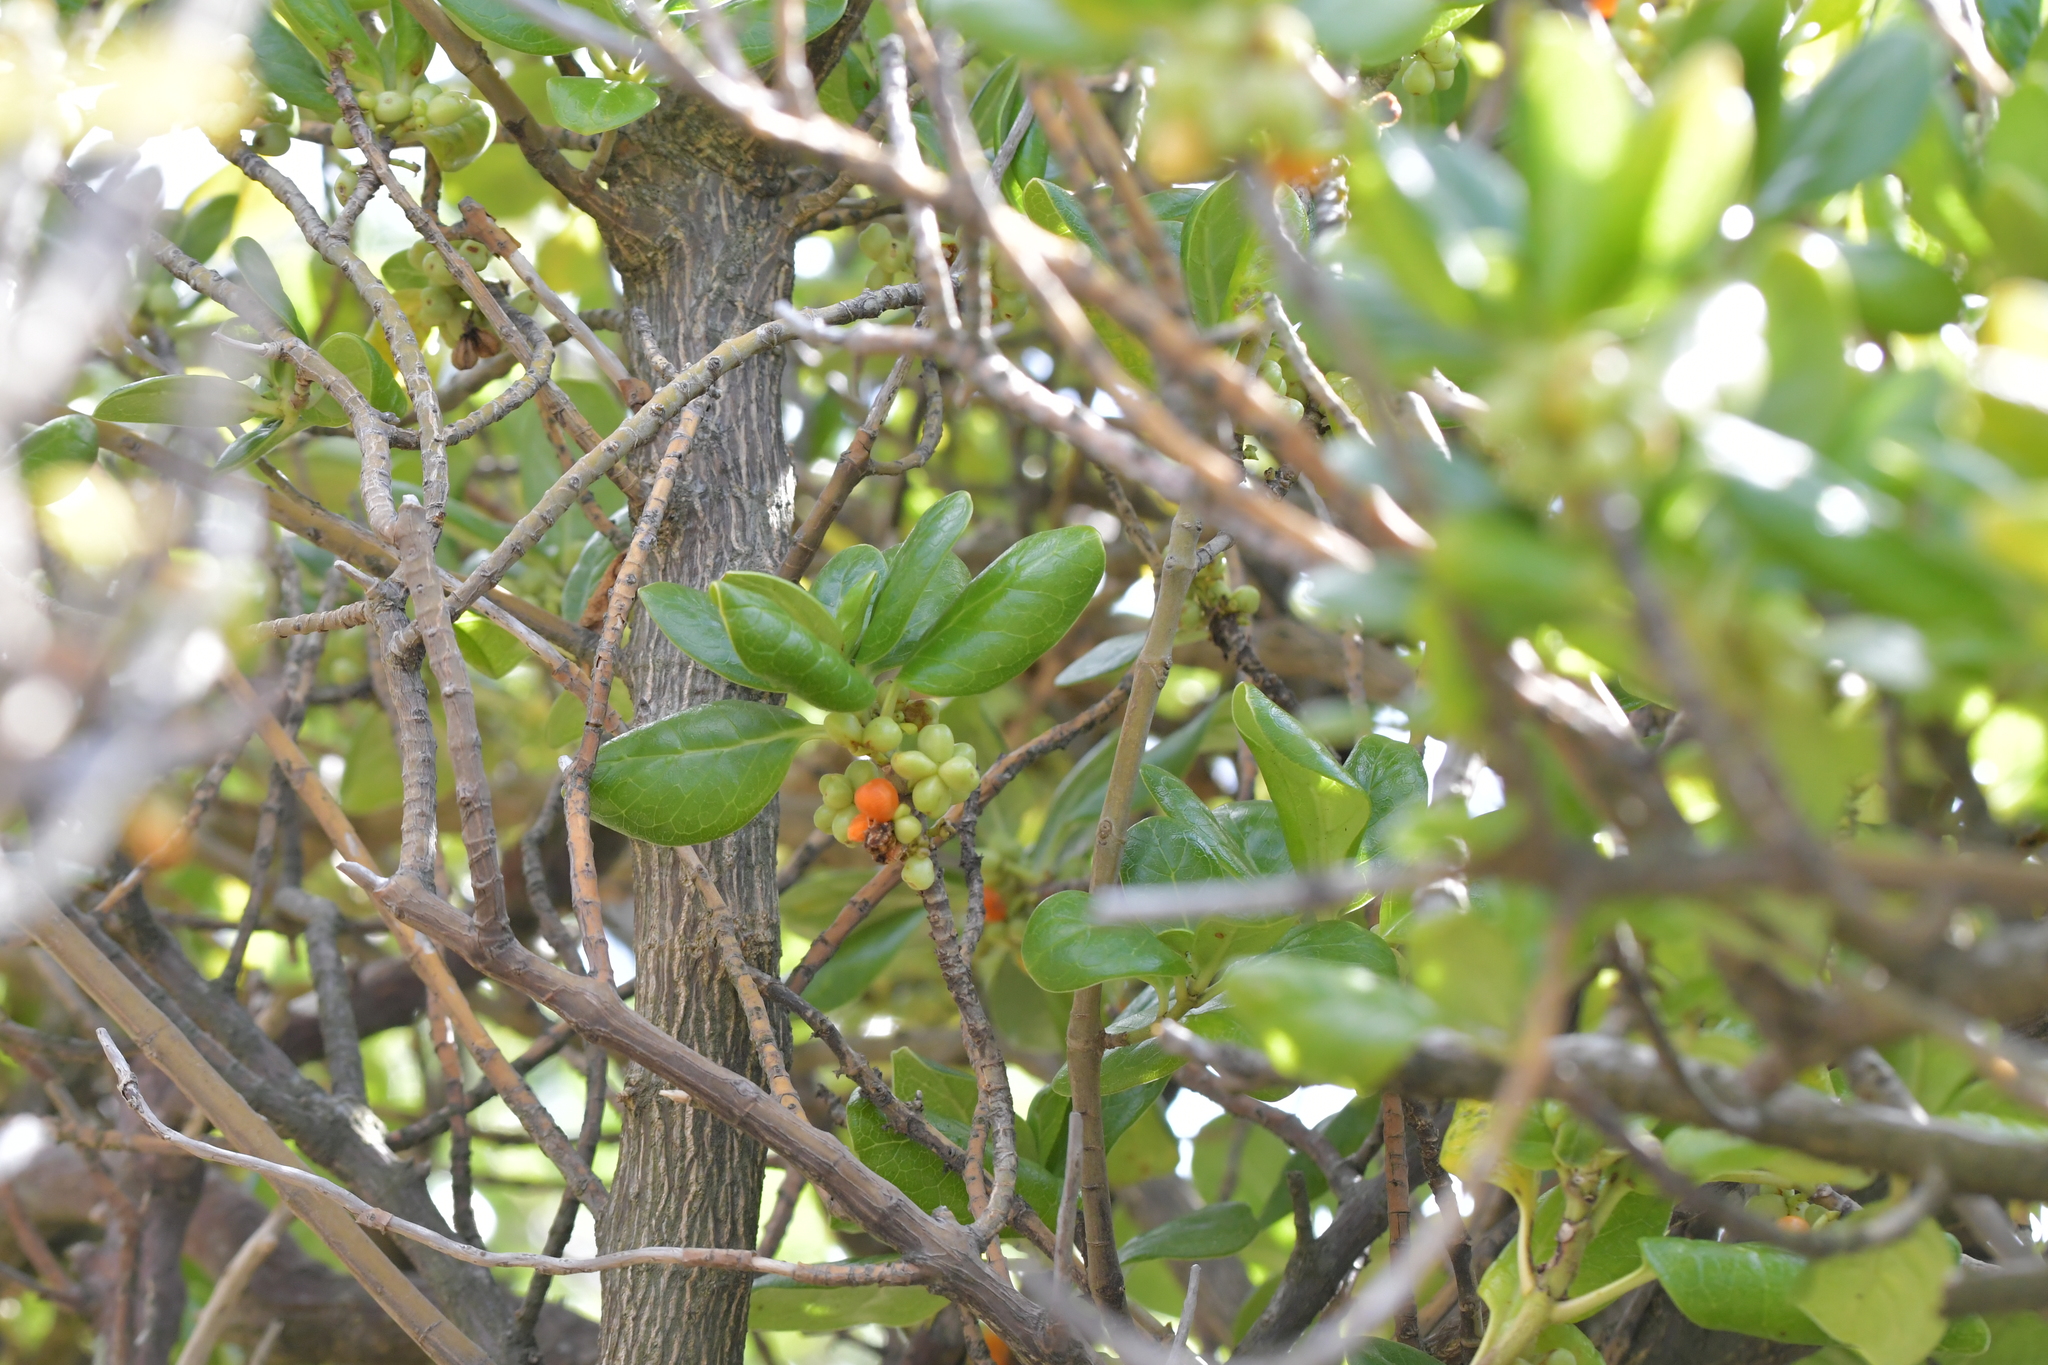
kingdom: Plantae
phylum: Tracheophyta
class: Magnoliopsida
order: Gentianales
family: Rubiaceae
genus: Coprosma
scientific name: Coprosma repens
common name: Tree bedstraw
